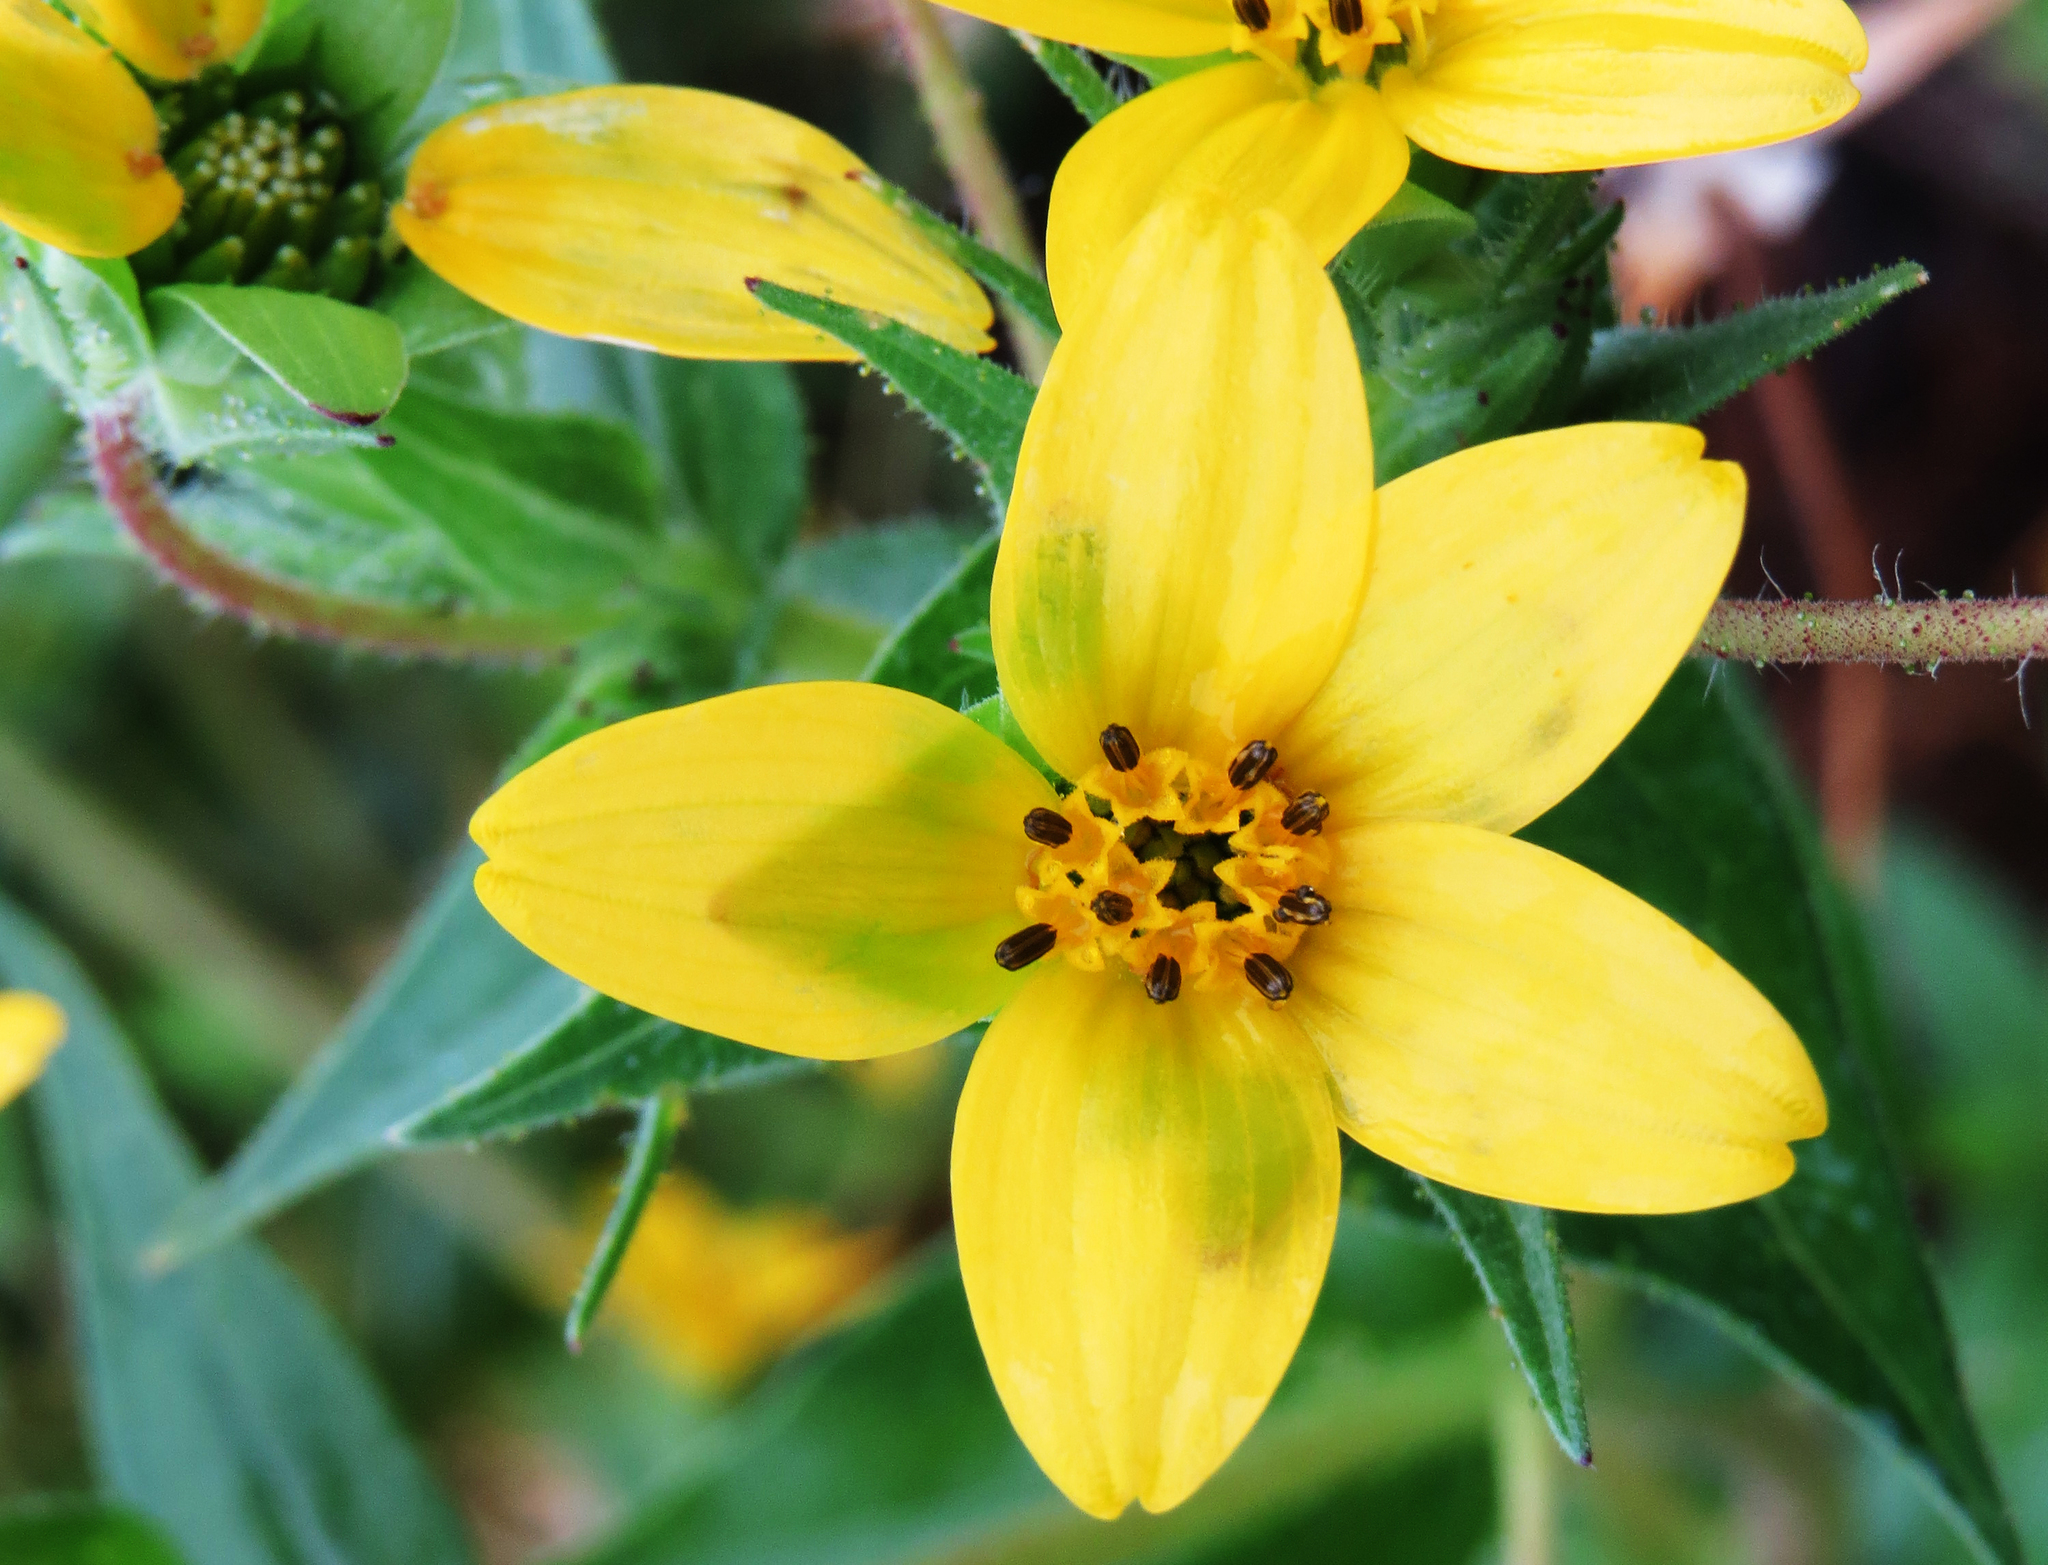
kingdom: Plantae
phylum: Tracheophyta
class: Magnoliopsida
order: Asterales
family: Asteraceae
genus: Lindheimera
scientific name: Lindheimera texana
